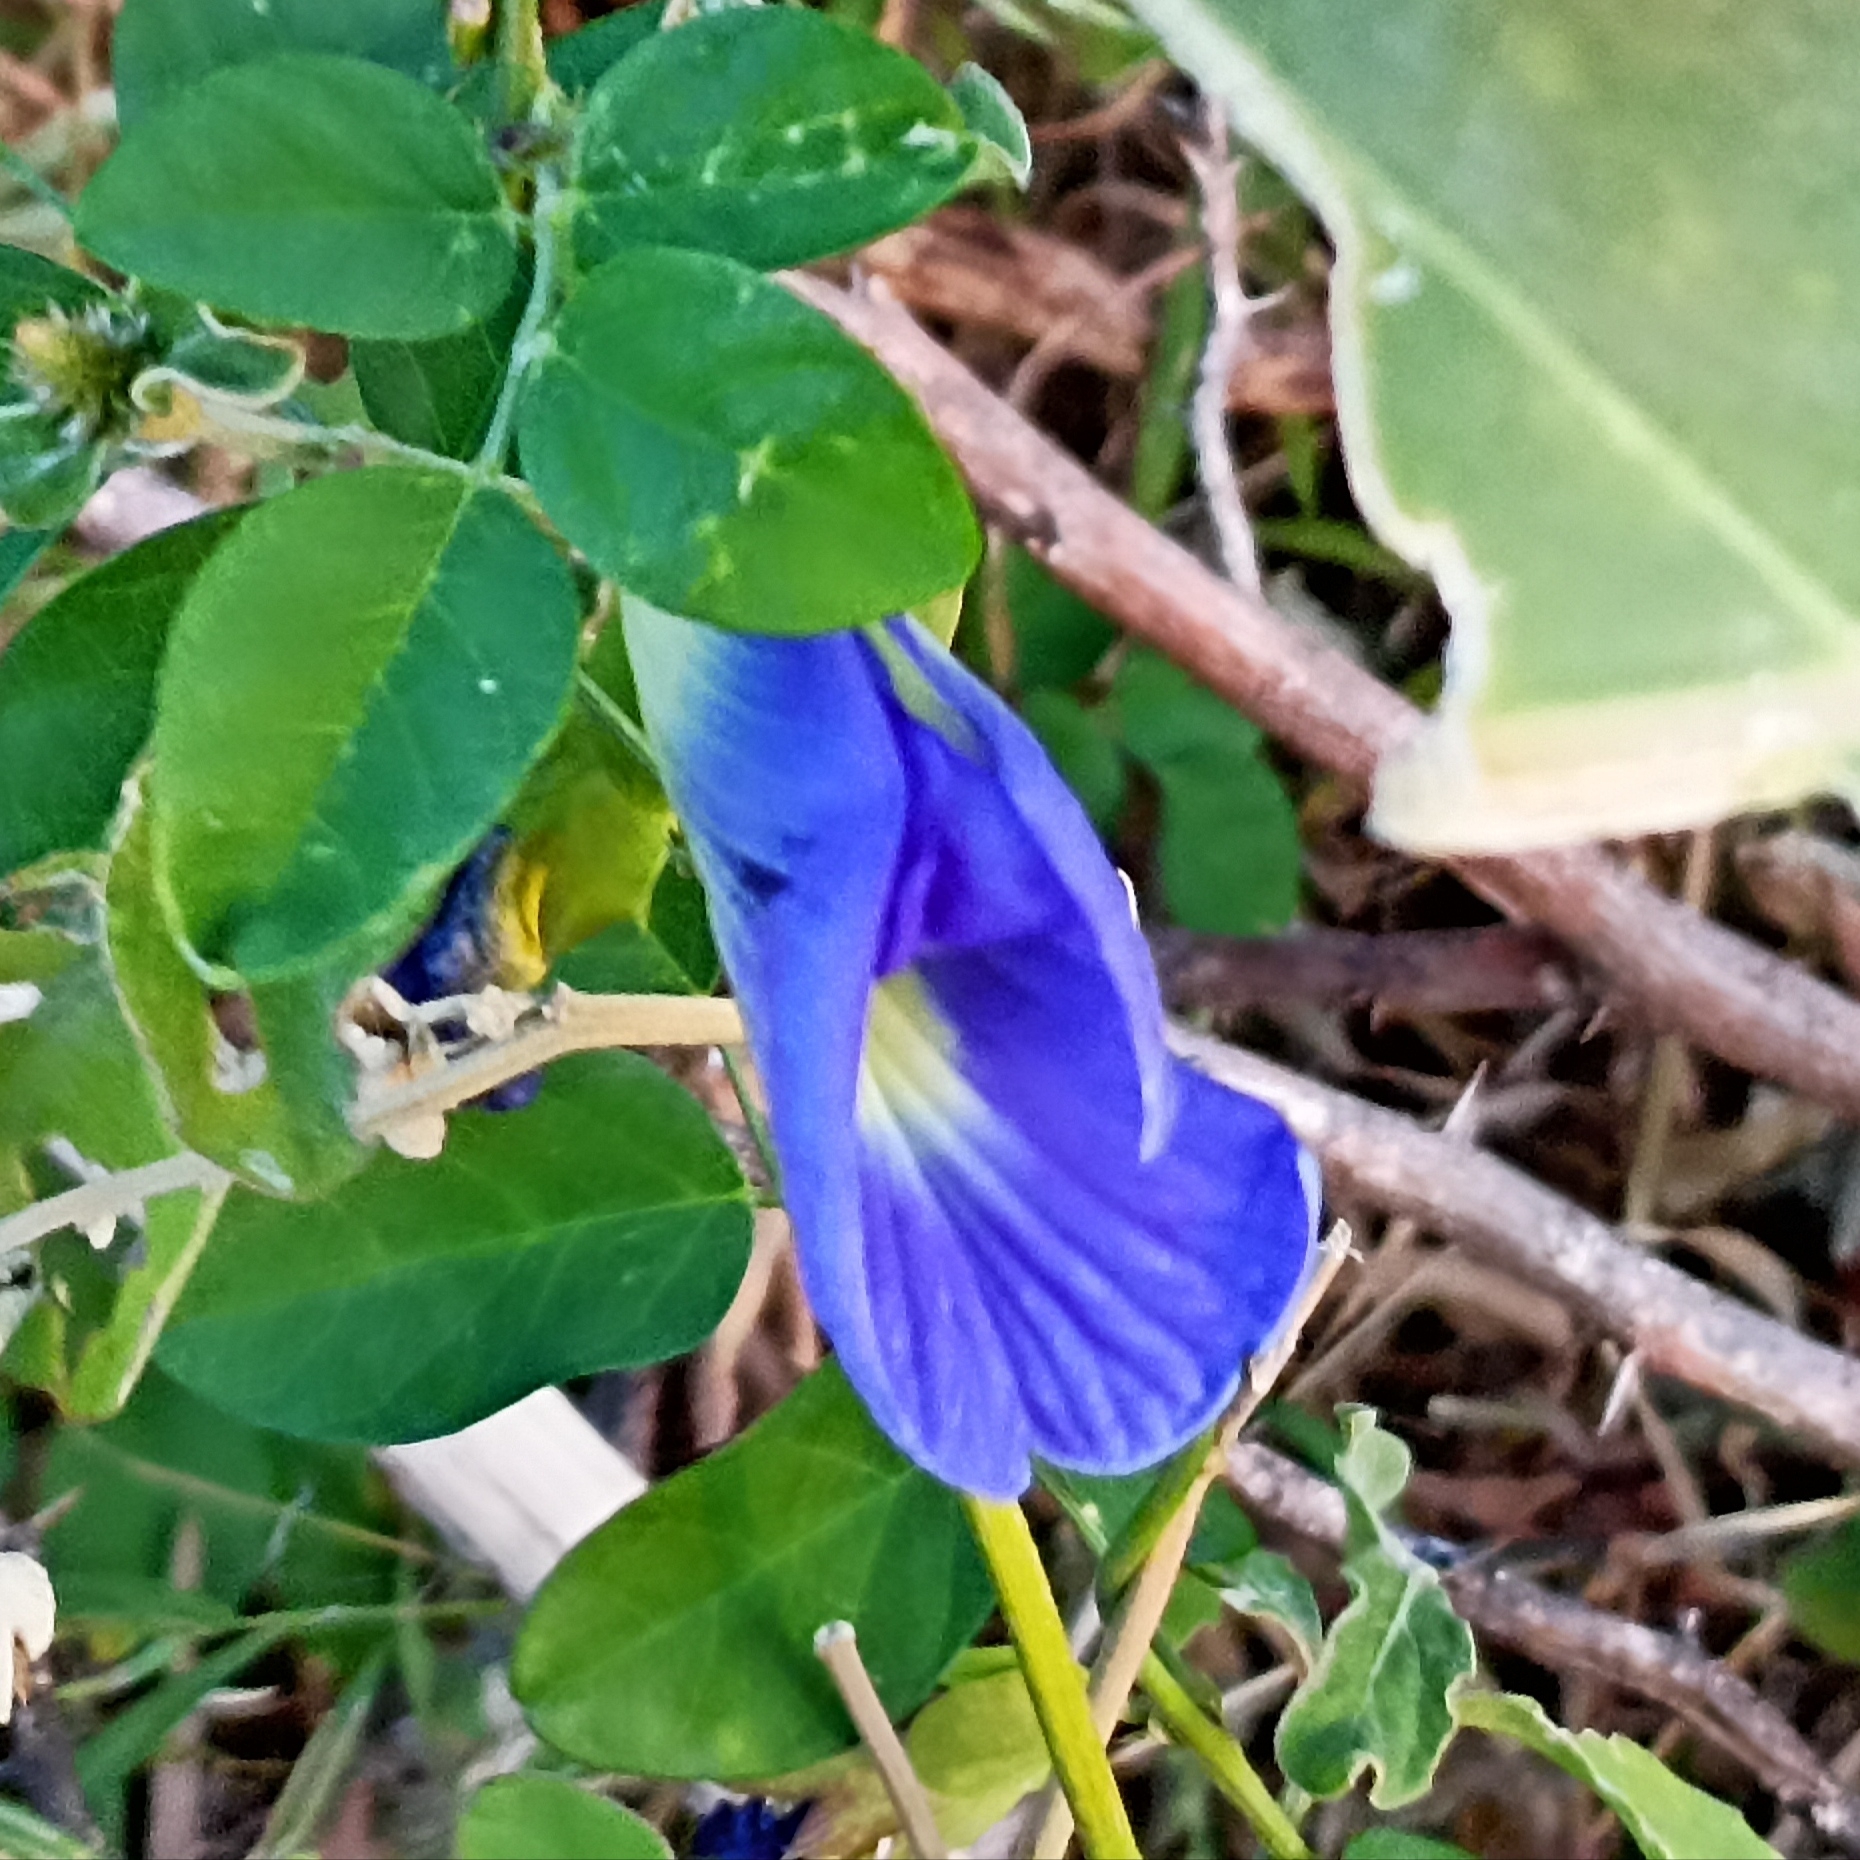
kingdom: Plantae
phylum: Tracheophyta
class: Magnoliopsida
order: Fabales
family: Fabaceae
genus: Clitoria
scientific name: Clitoria ternatea
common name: Asian pigeonwings
